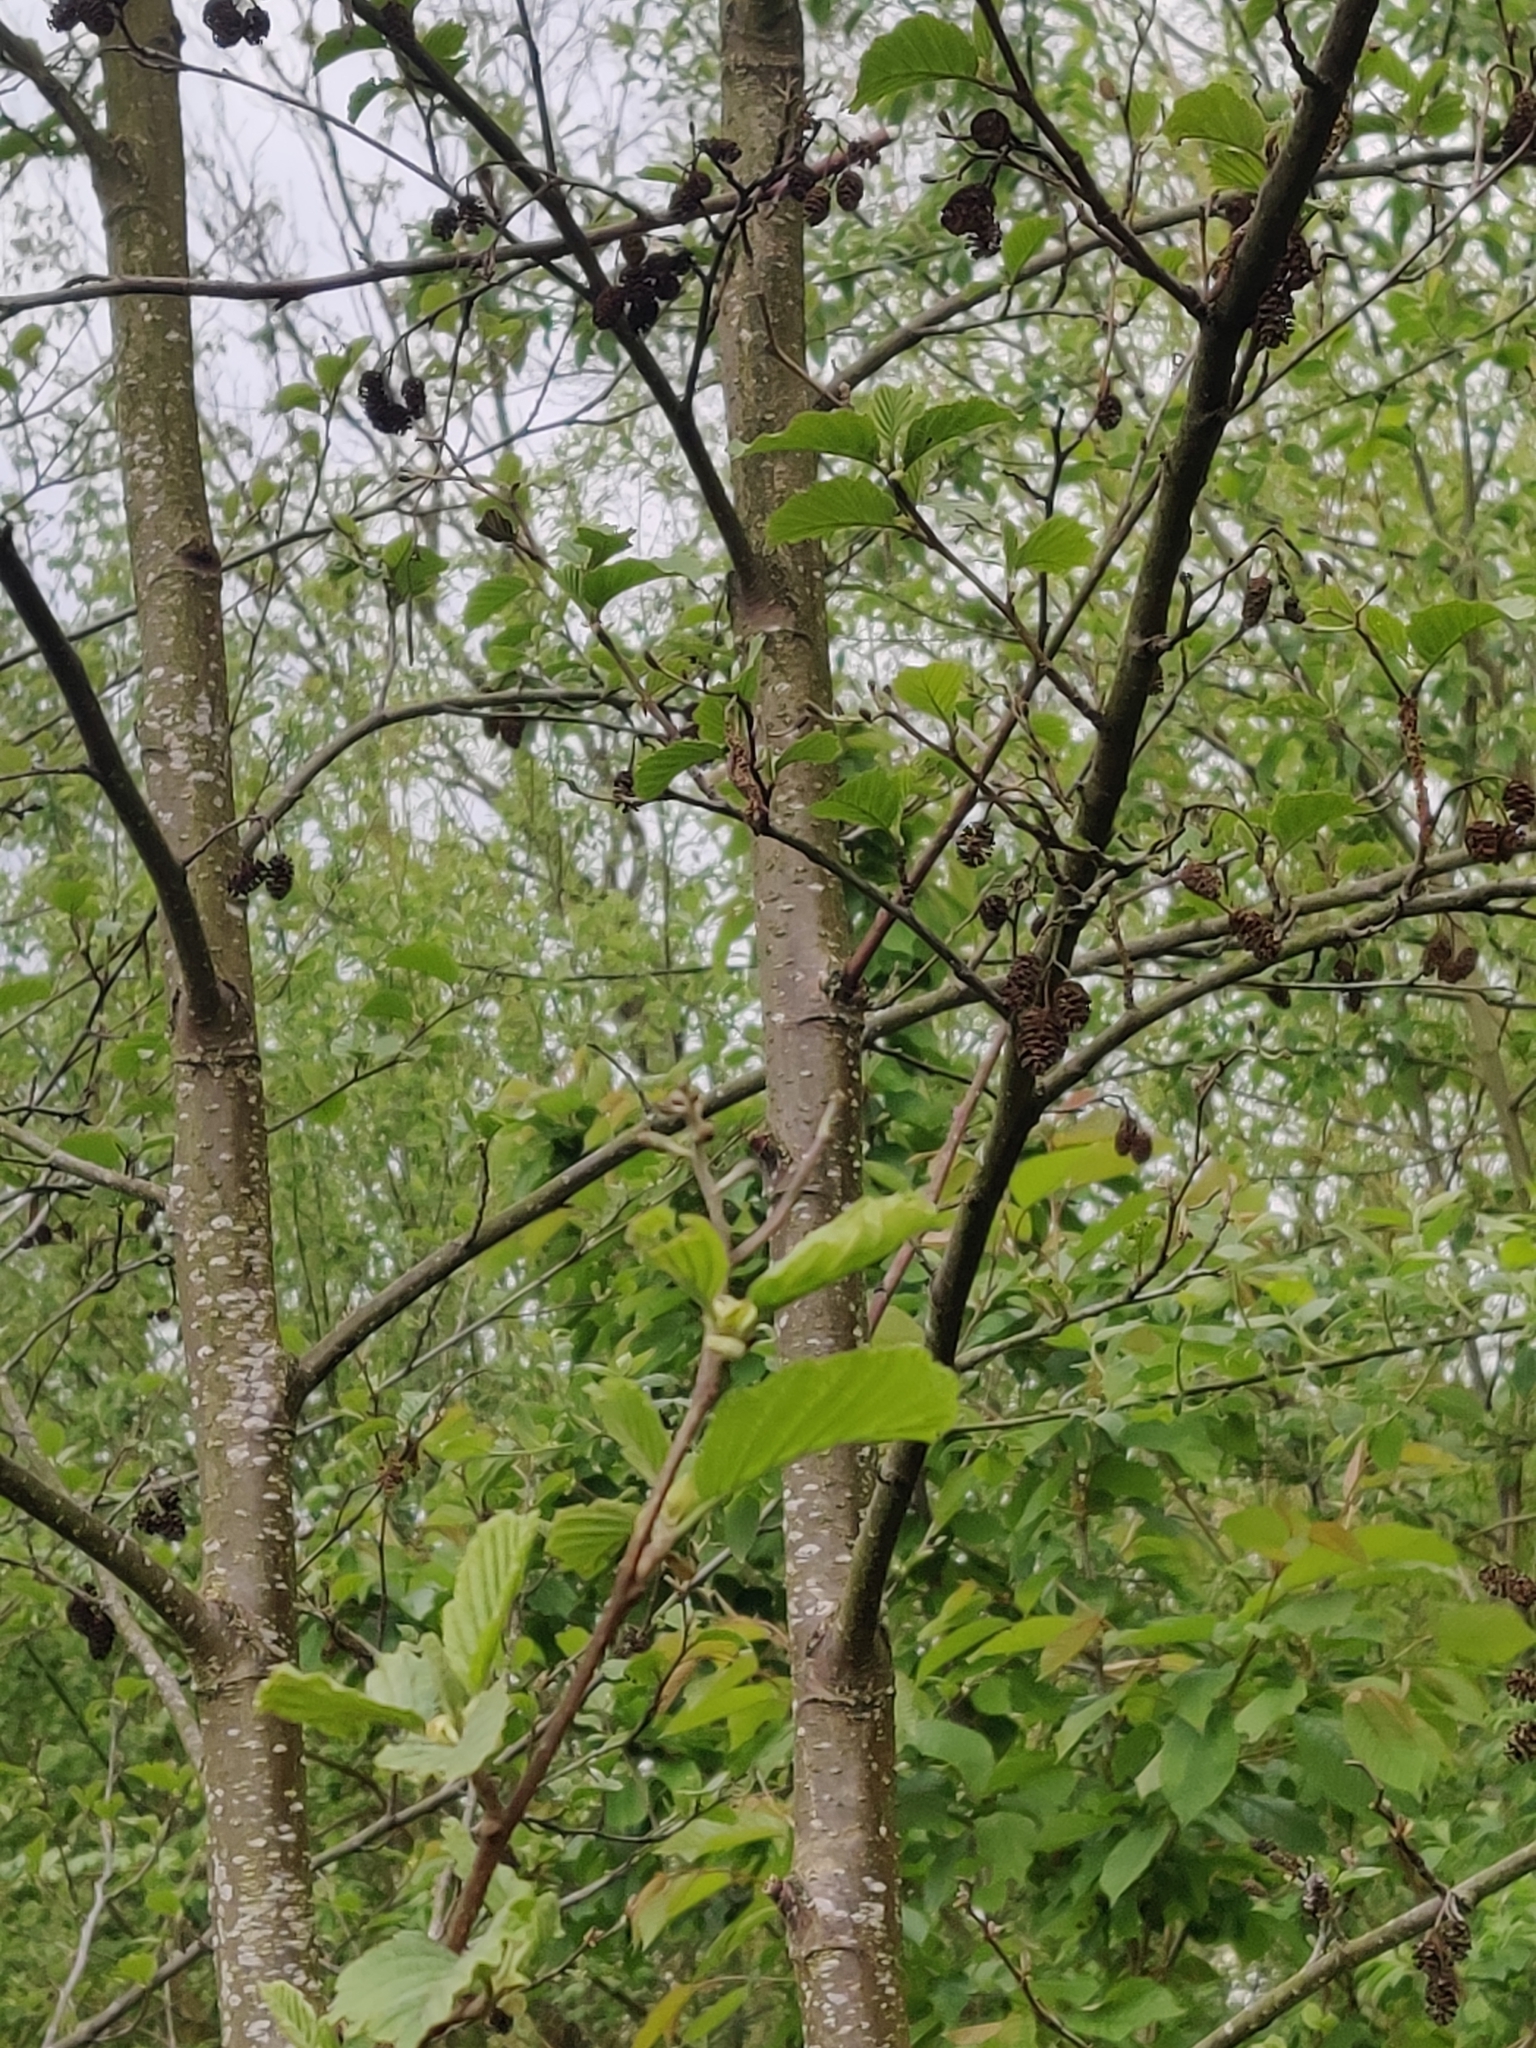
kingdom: Plantae
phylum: Tracheophyta
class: Magnoliopsida
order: Fagales
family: Betulaceae
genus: Alnus
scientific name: Alnus glutinosa
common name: Black alder
